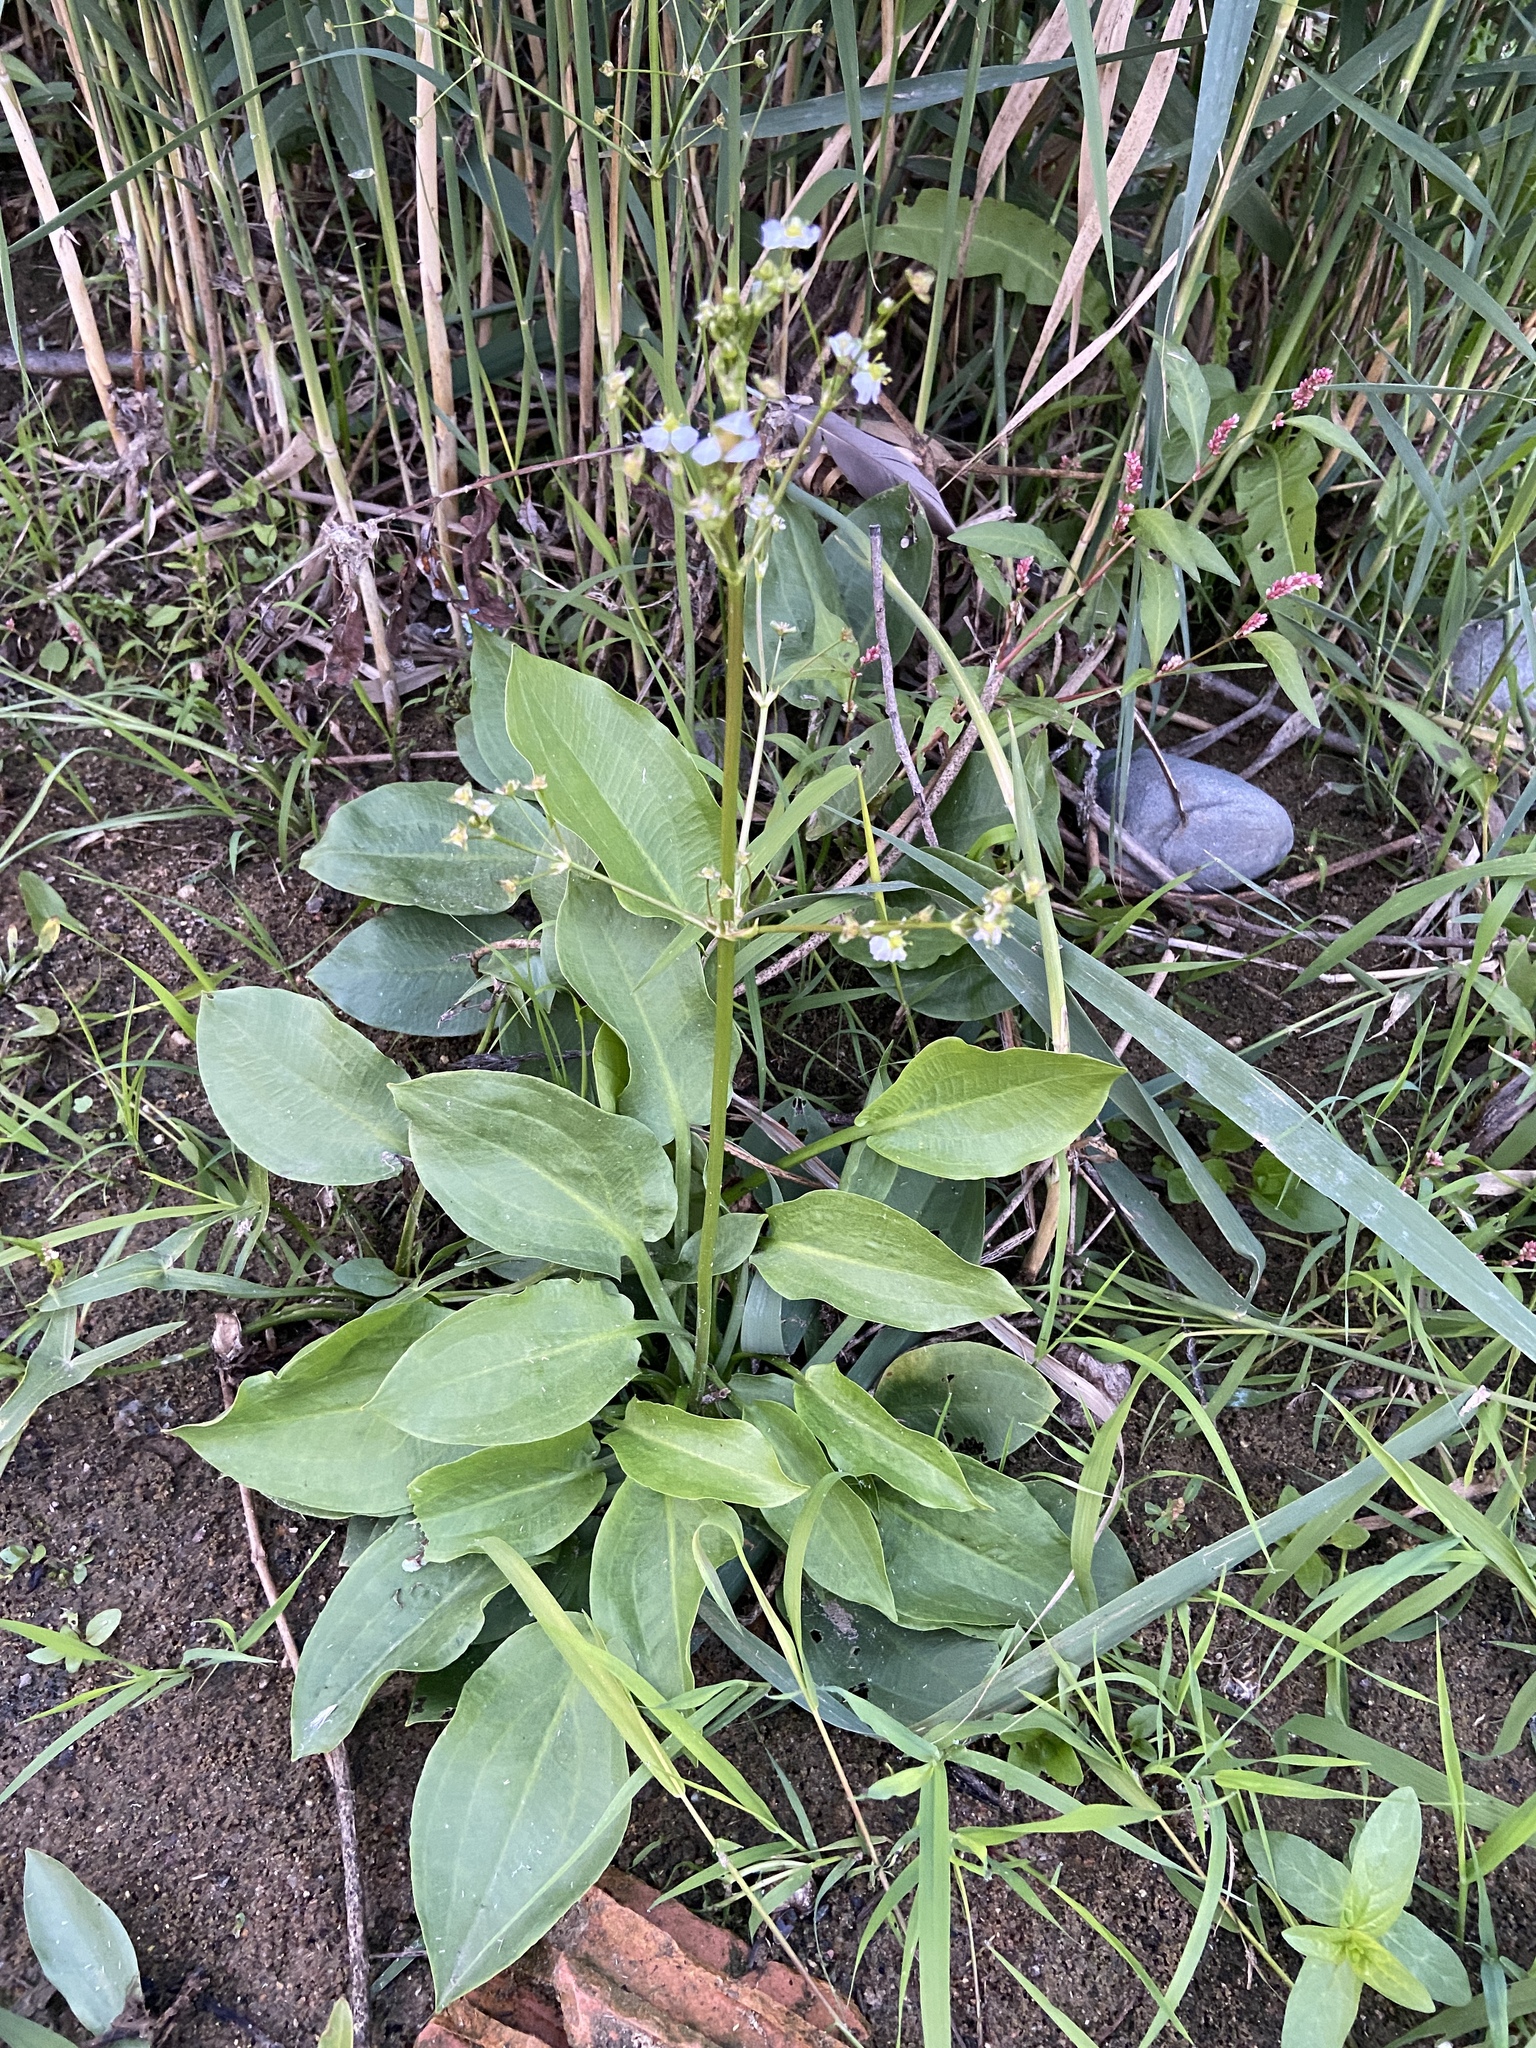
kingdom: Plantae
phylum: Tracheophyta
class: Liliopsida
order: Alismatales
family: Alismataceae
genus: Alisma
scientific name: Alisma plantago-aquatica
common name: Water-plantain
